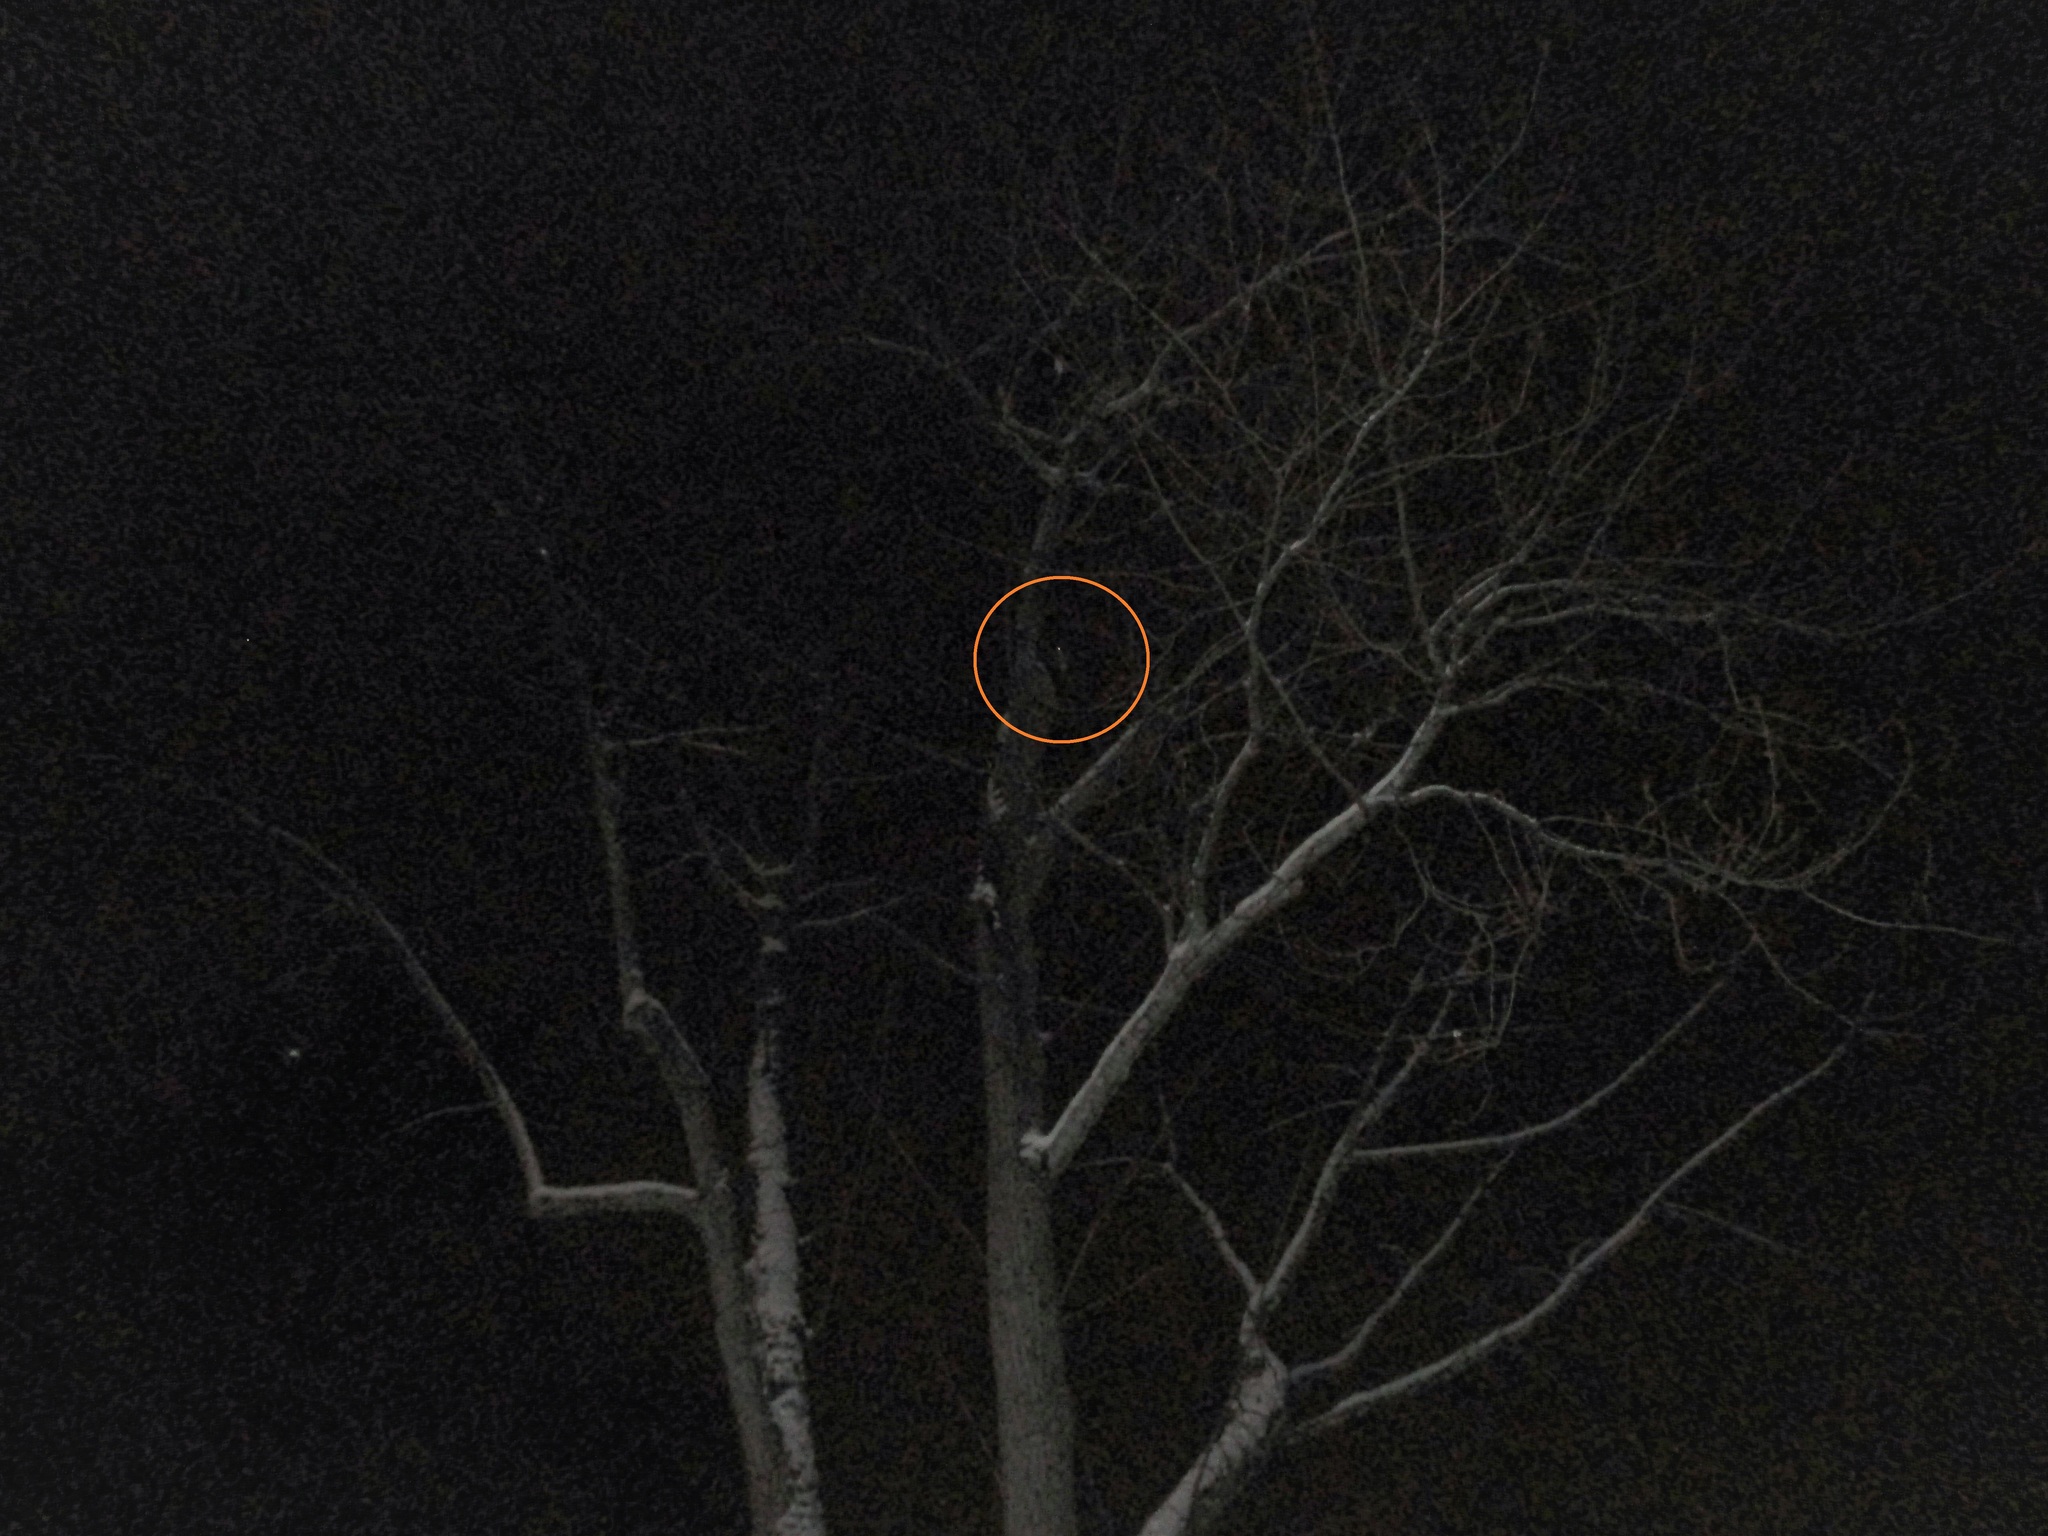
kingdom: Animalia
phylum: Chordata
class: Aves
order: Strigiformes
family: Strigidae
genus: Megascops
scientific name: Megascops asio
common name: Eastern screech-owl
